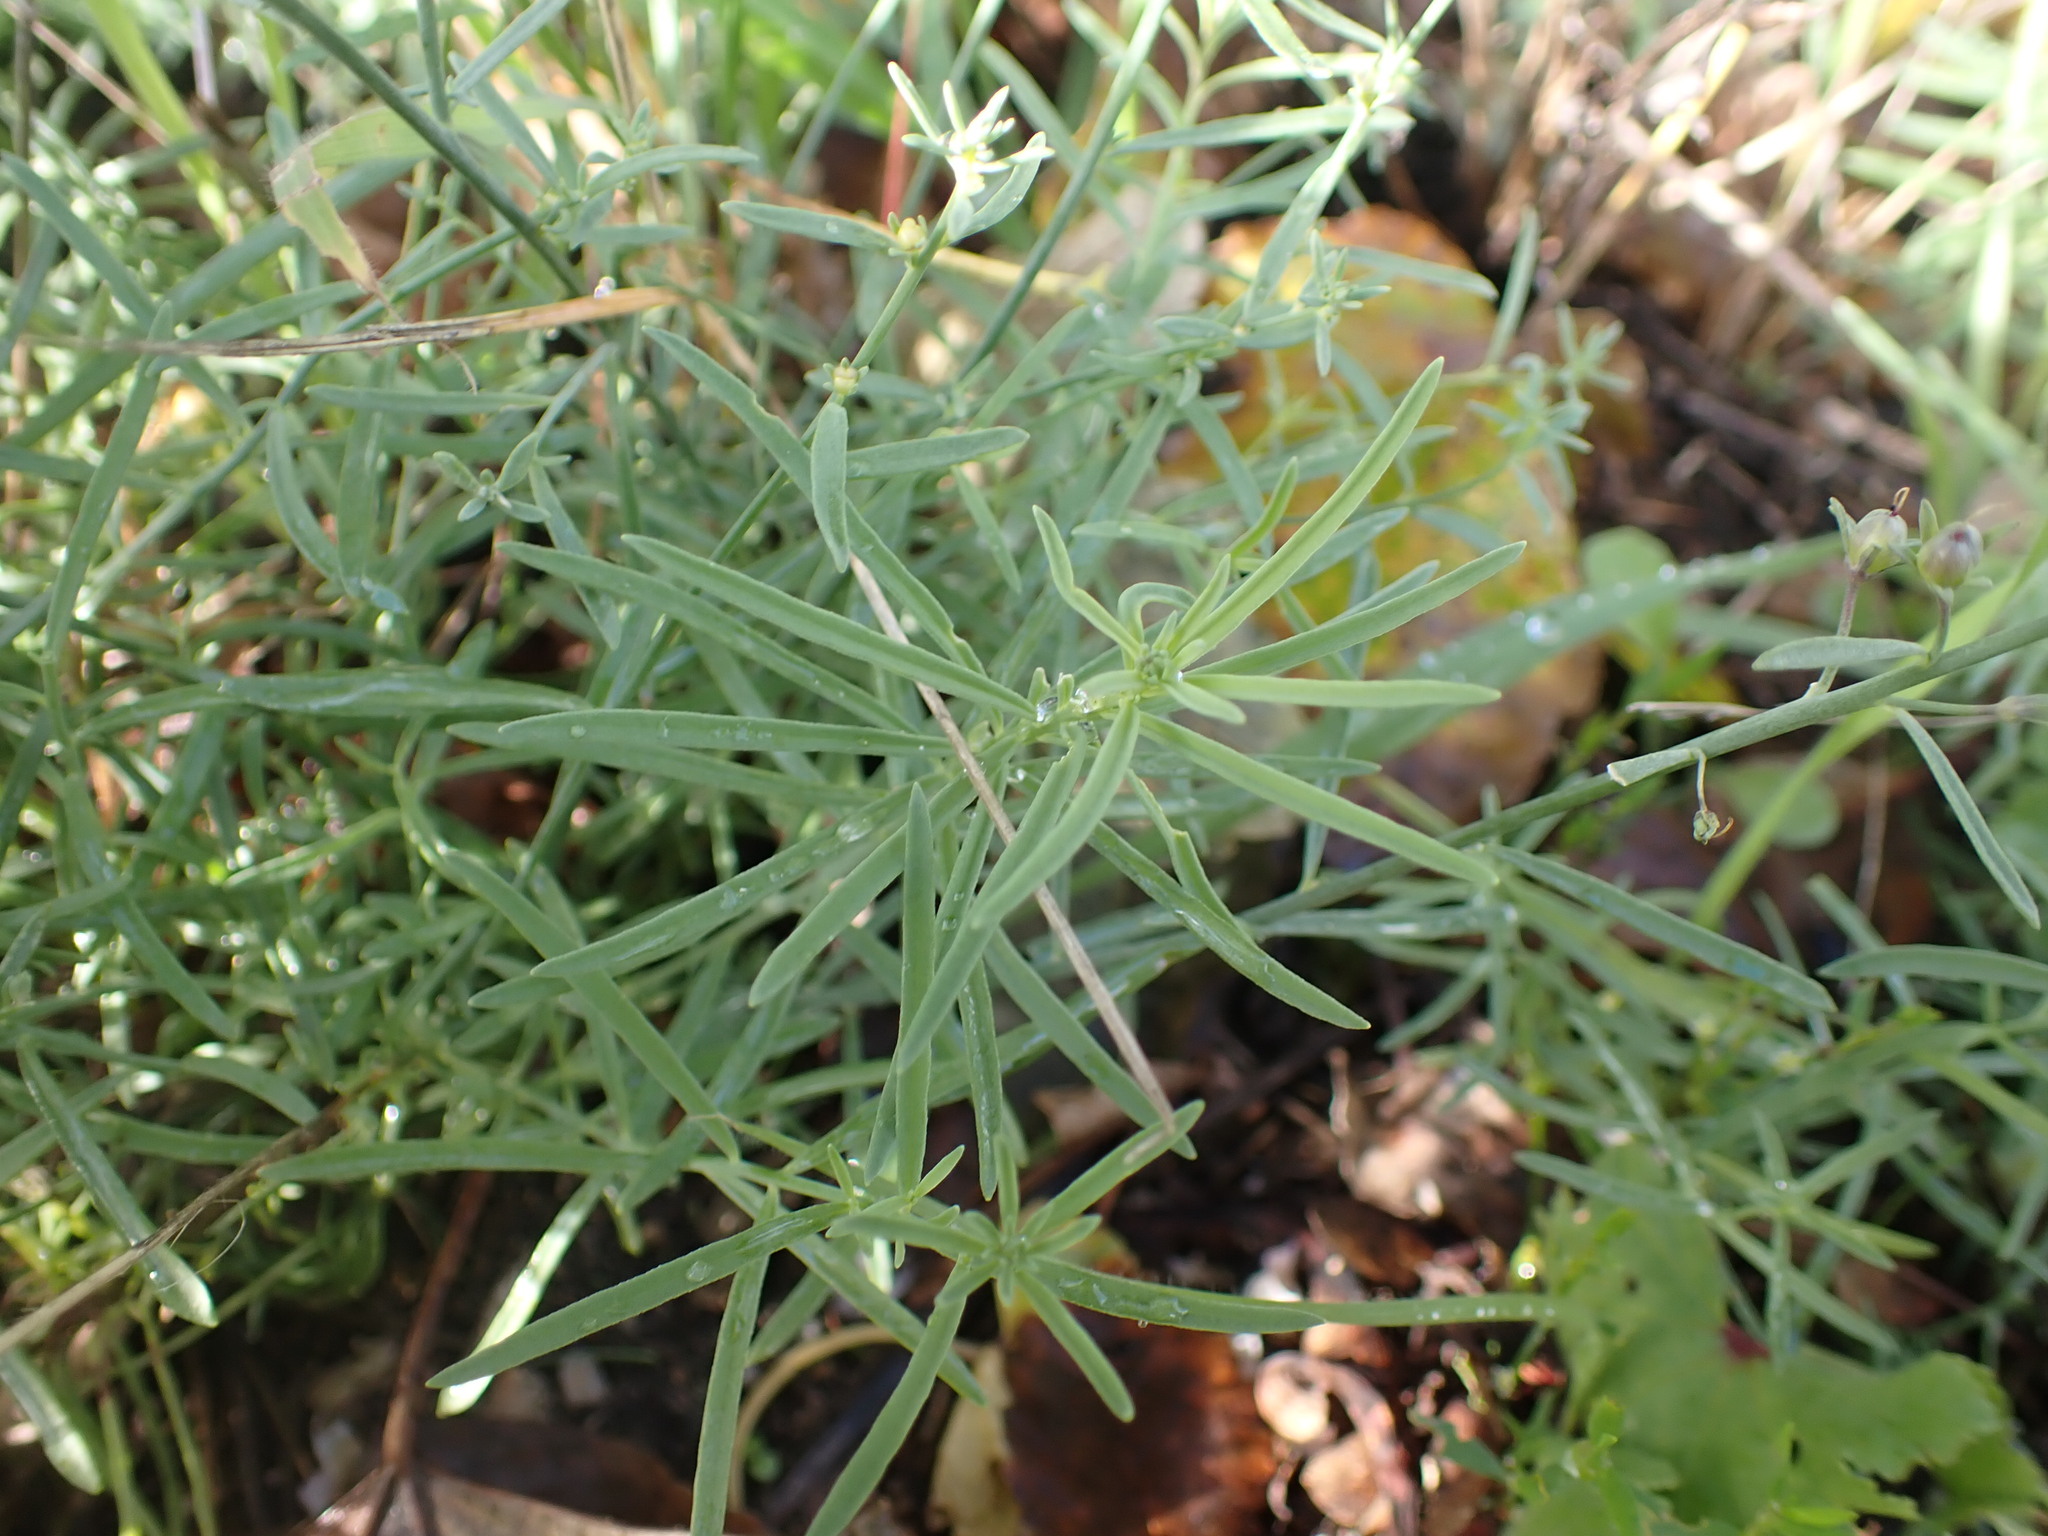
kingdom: Plantae
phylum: Tracheophyta
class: Magnoliopsida
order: Lamiales
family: Plantaginaceae
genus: Linaria
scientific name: Linaria repens
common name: Pale toadflax
